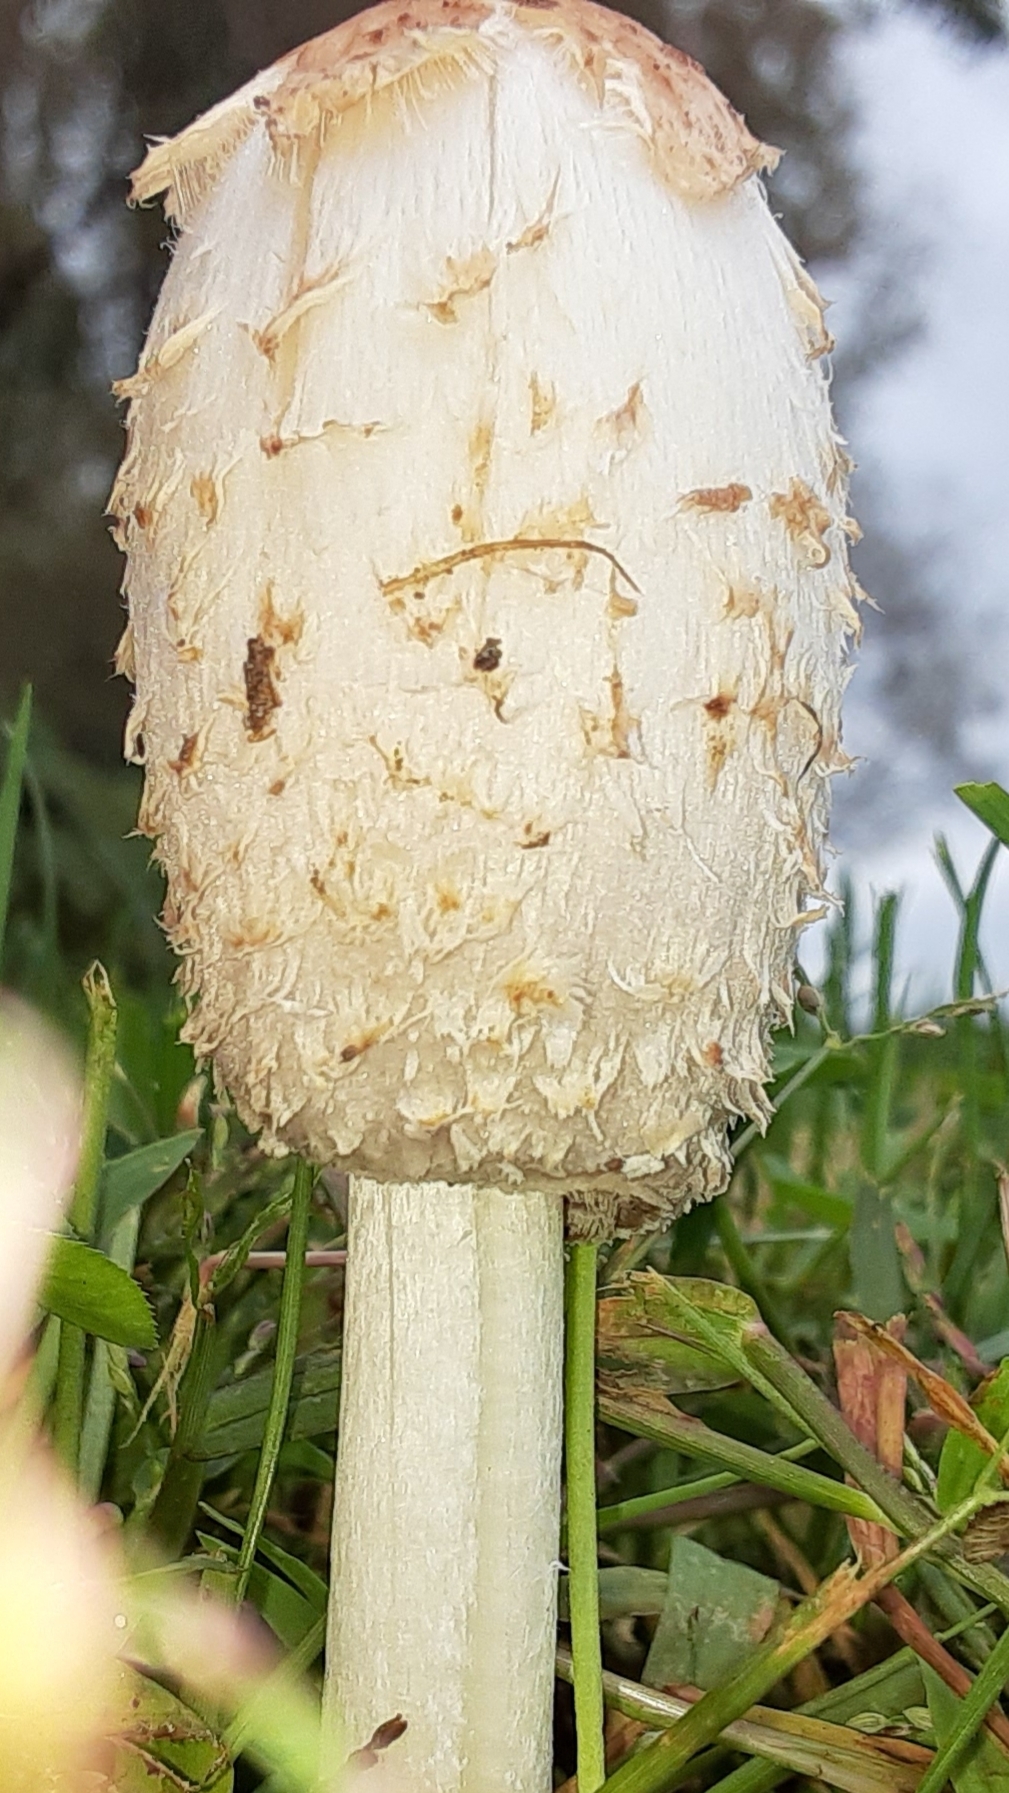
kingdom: Fungi
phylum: Basidiomycota
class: Agaricomycetes
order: Agaricales
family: Agaricaceae
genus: Coprinus
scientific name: Coprinus comatus
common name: Lawyer's wig
